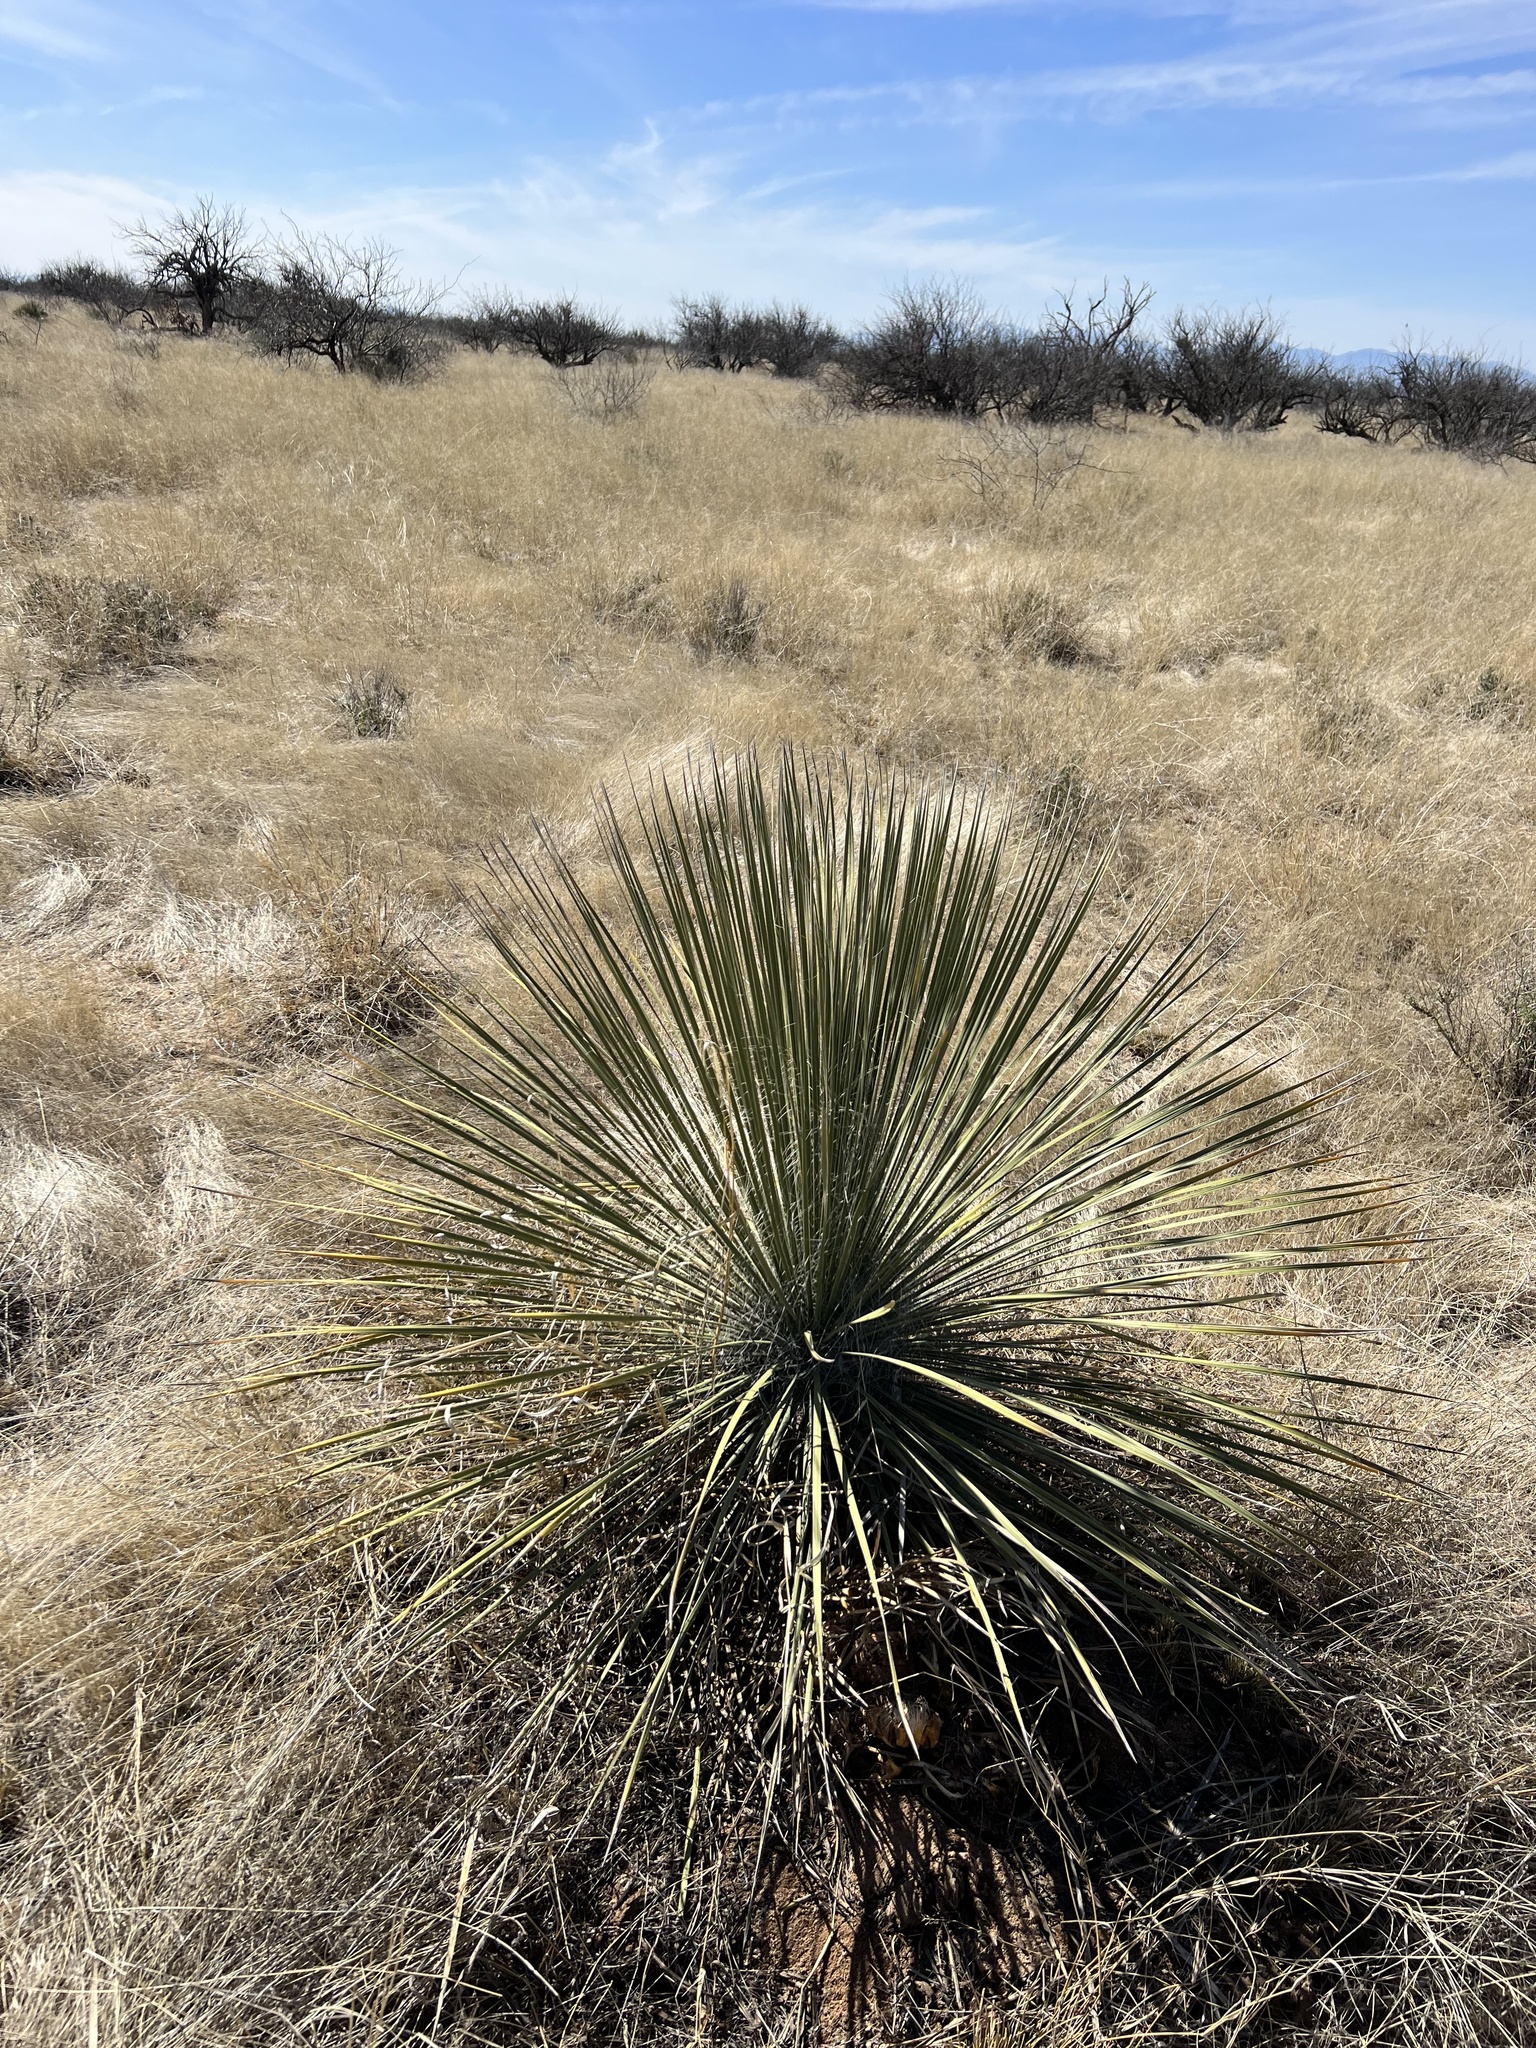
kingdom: Plantae
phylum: Tracheophyta
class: Liliopsida
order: Asparagales
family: Asparagaceae
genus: Yucca
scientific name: Yucca elata
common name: Palmella
